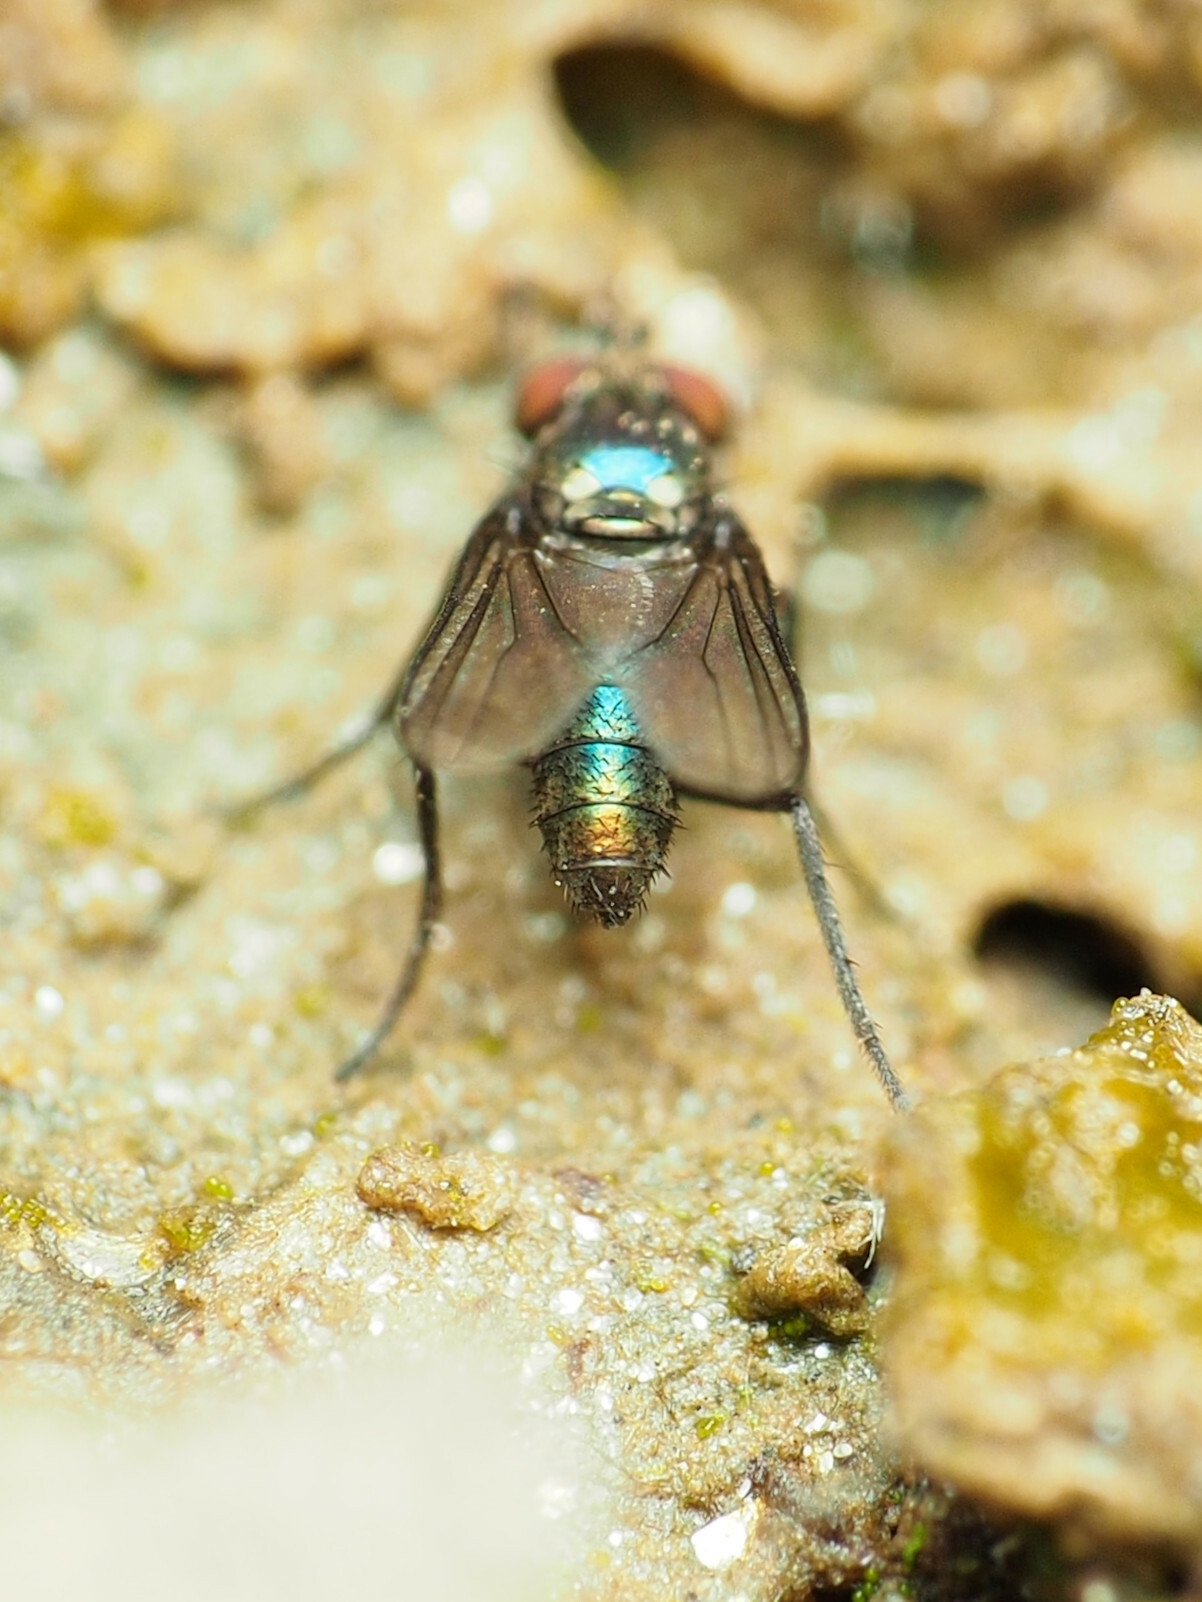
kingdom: Animalia
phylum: Arthropoda
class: Insecta
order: Diptera
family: Dolichopodidae
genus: Chrysotus
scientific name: Chrysotus bellus
